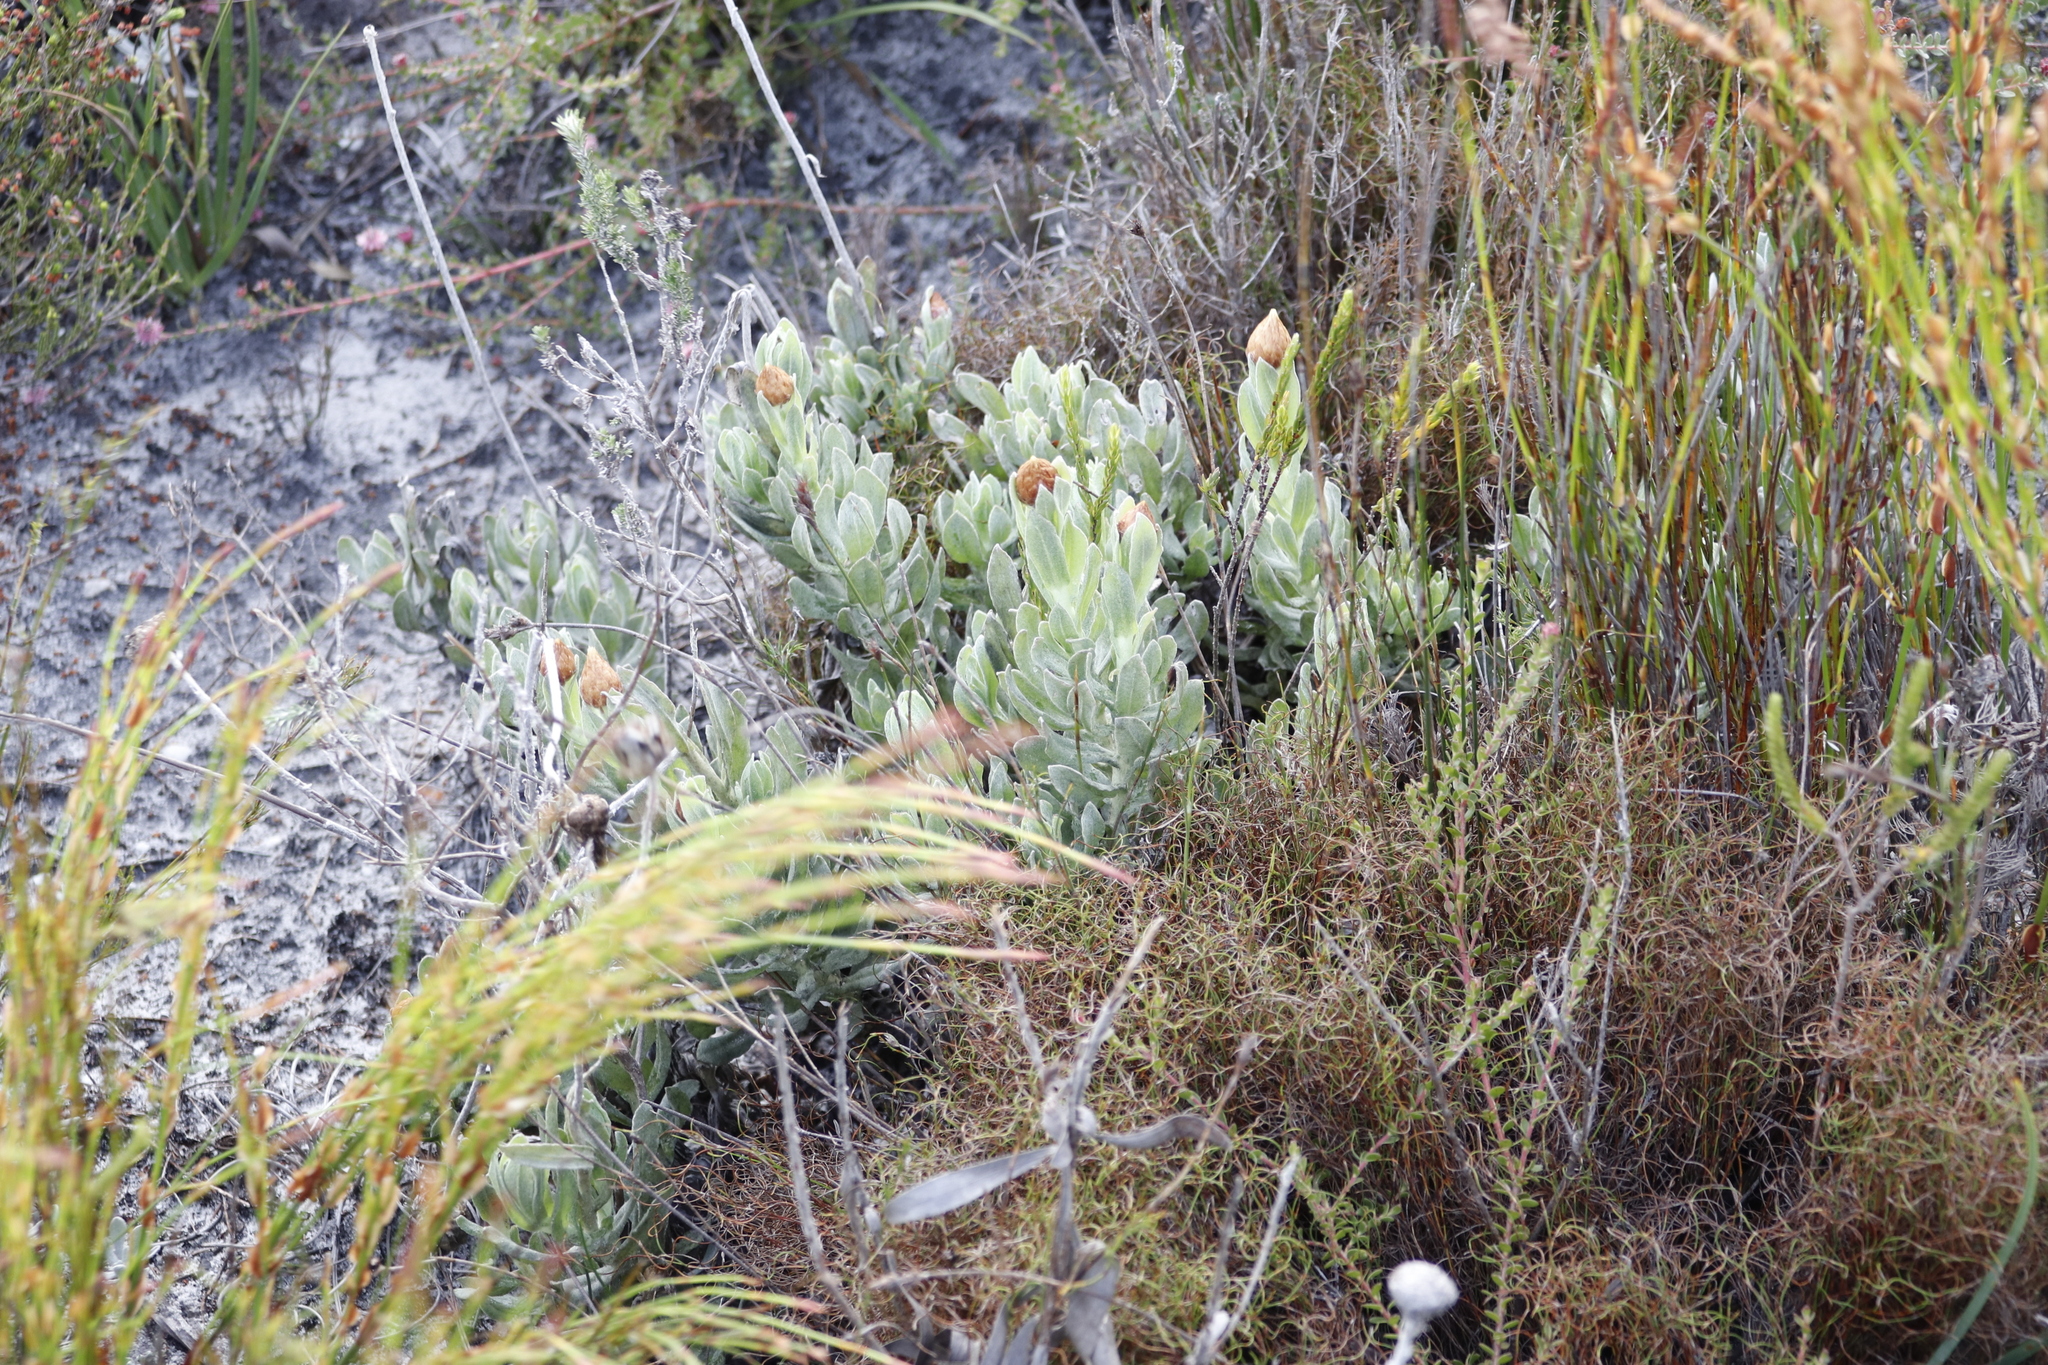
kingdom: Plantae
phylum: Tracheophyta
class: Magnoliopsida
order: Asterales
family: Asteraceae
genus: Syncarpha
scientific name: Syncarpha speciosissima
